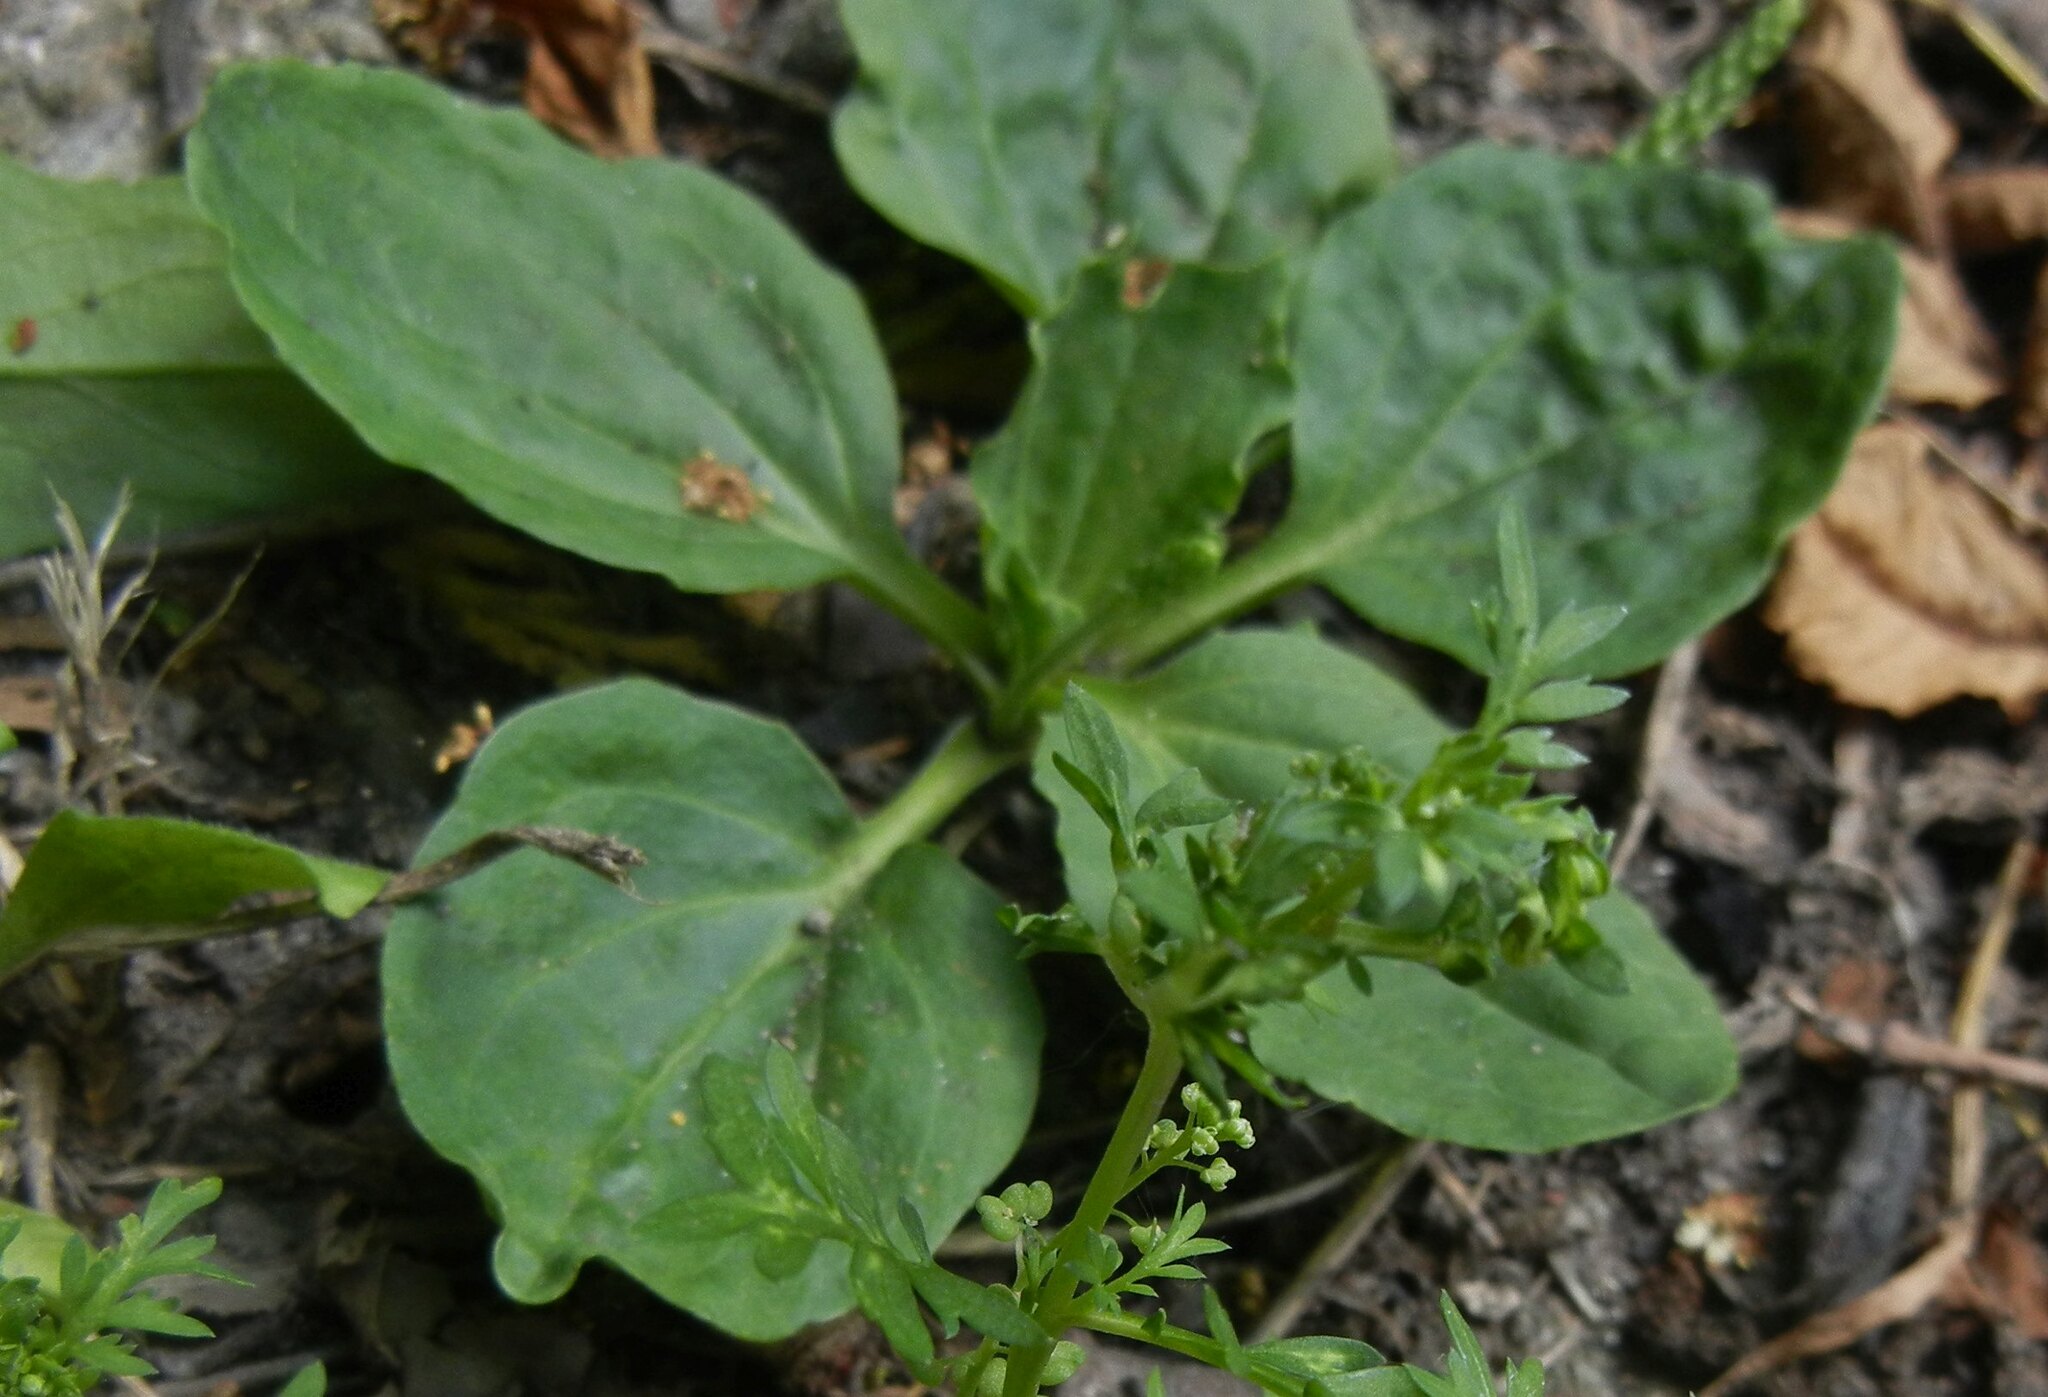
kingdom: Plantae
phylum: Tracheophyta
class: Magnoliopsida
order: Lamiales
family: Plantaginaceae
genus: Plantago
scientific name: Plantago major
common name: Common plantain
